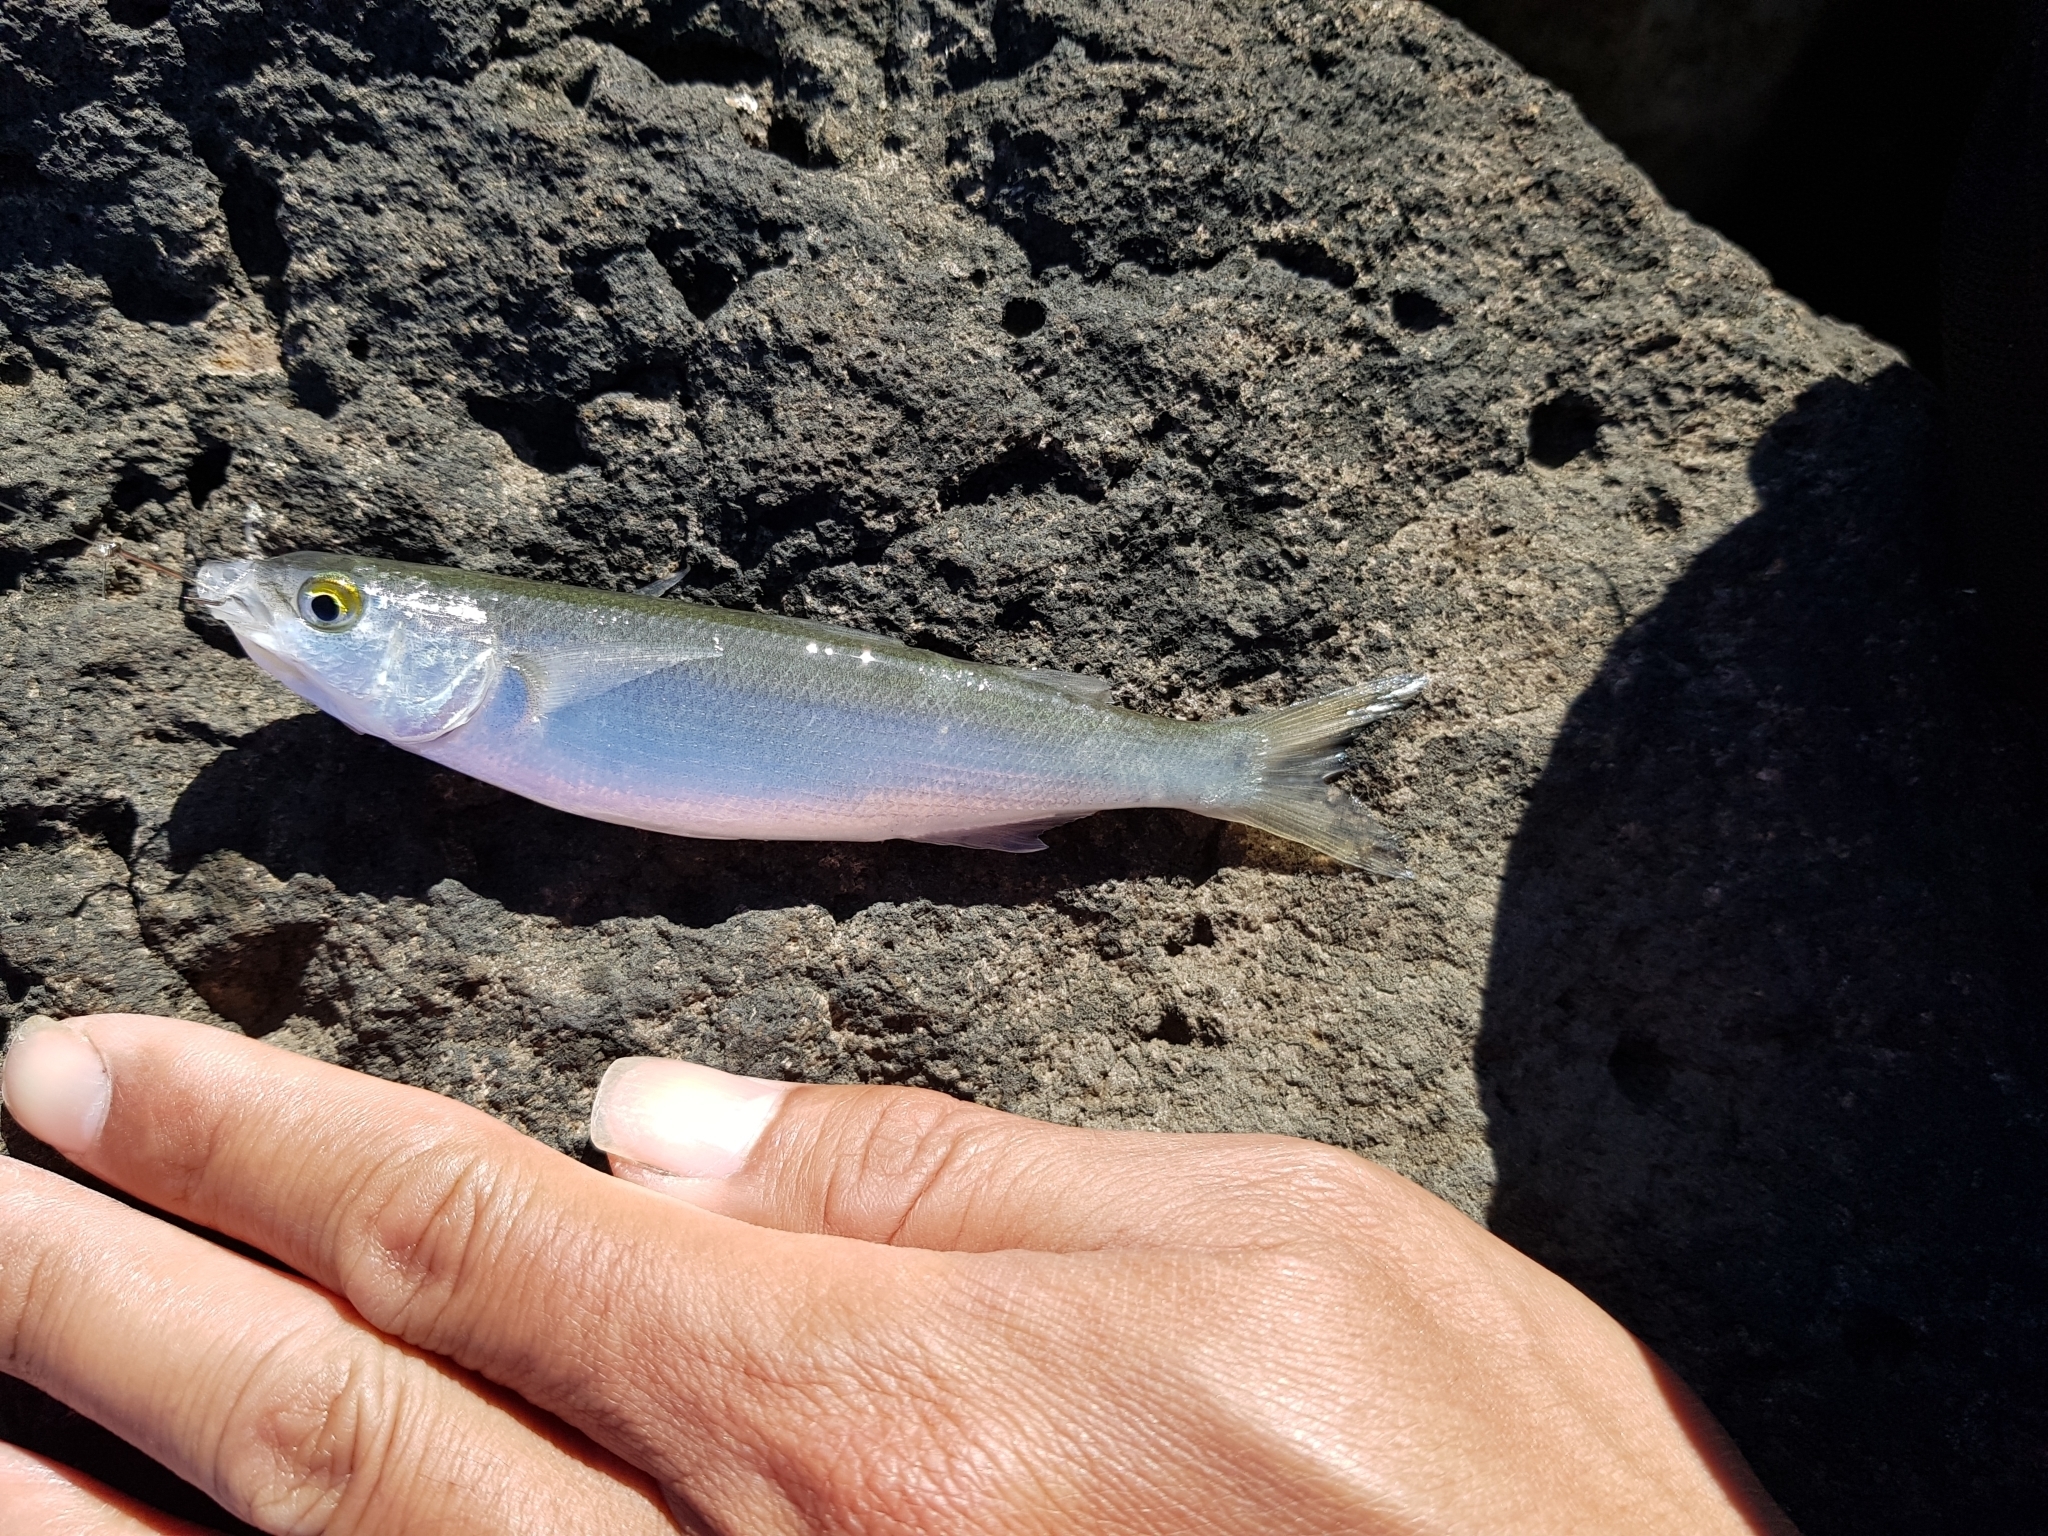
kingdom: Animalia
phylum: Chordata
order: Mugiliformes
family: Mugilidae
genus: Aldrichetta
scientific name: Aldrichetta forsteri
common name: Yellow-eye mullet
